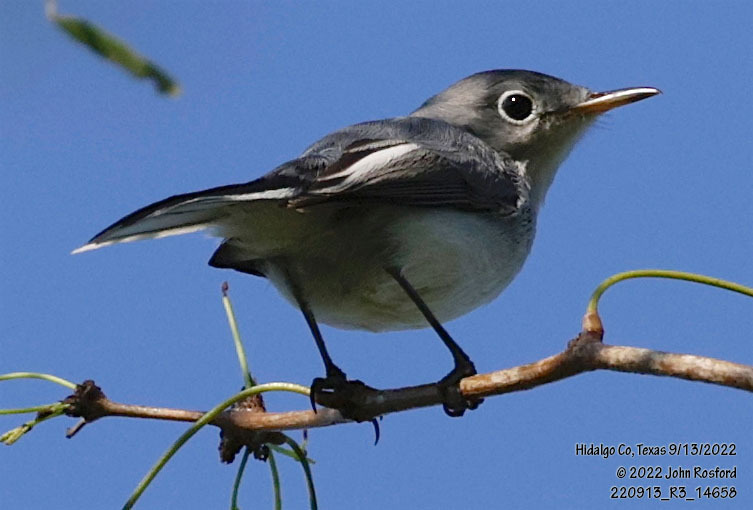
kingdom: Animalia
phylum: Chordata
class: Aves
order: Passeriformes
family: Polioptilidae
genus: Polioptila
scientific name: Polioptila caerulea
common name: Blue-gray gnatcatcher
